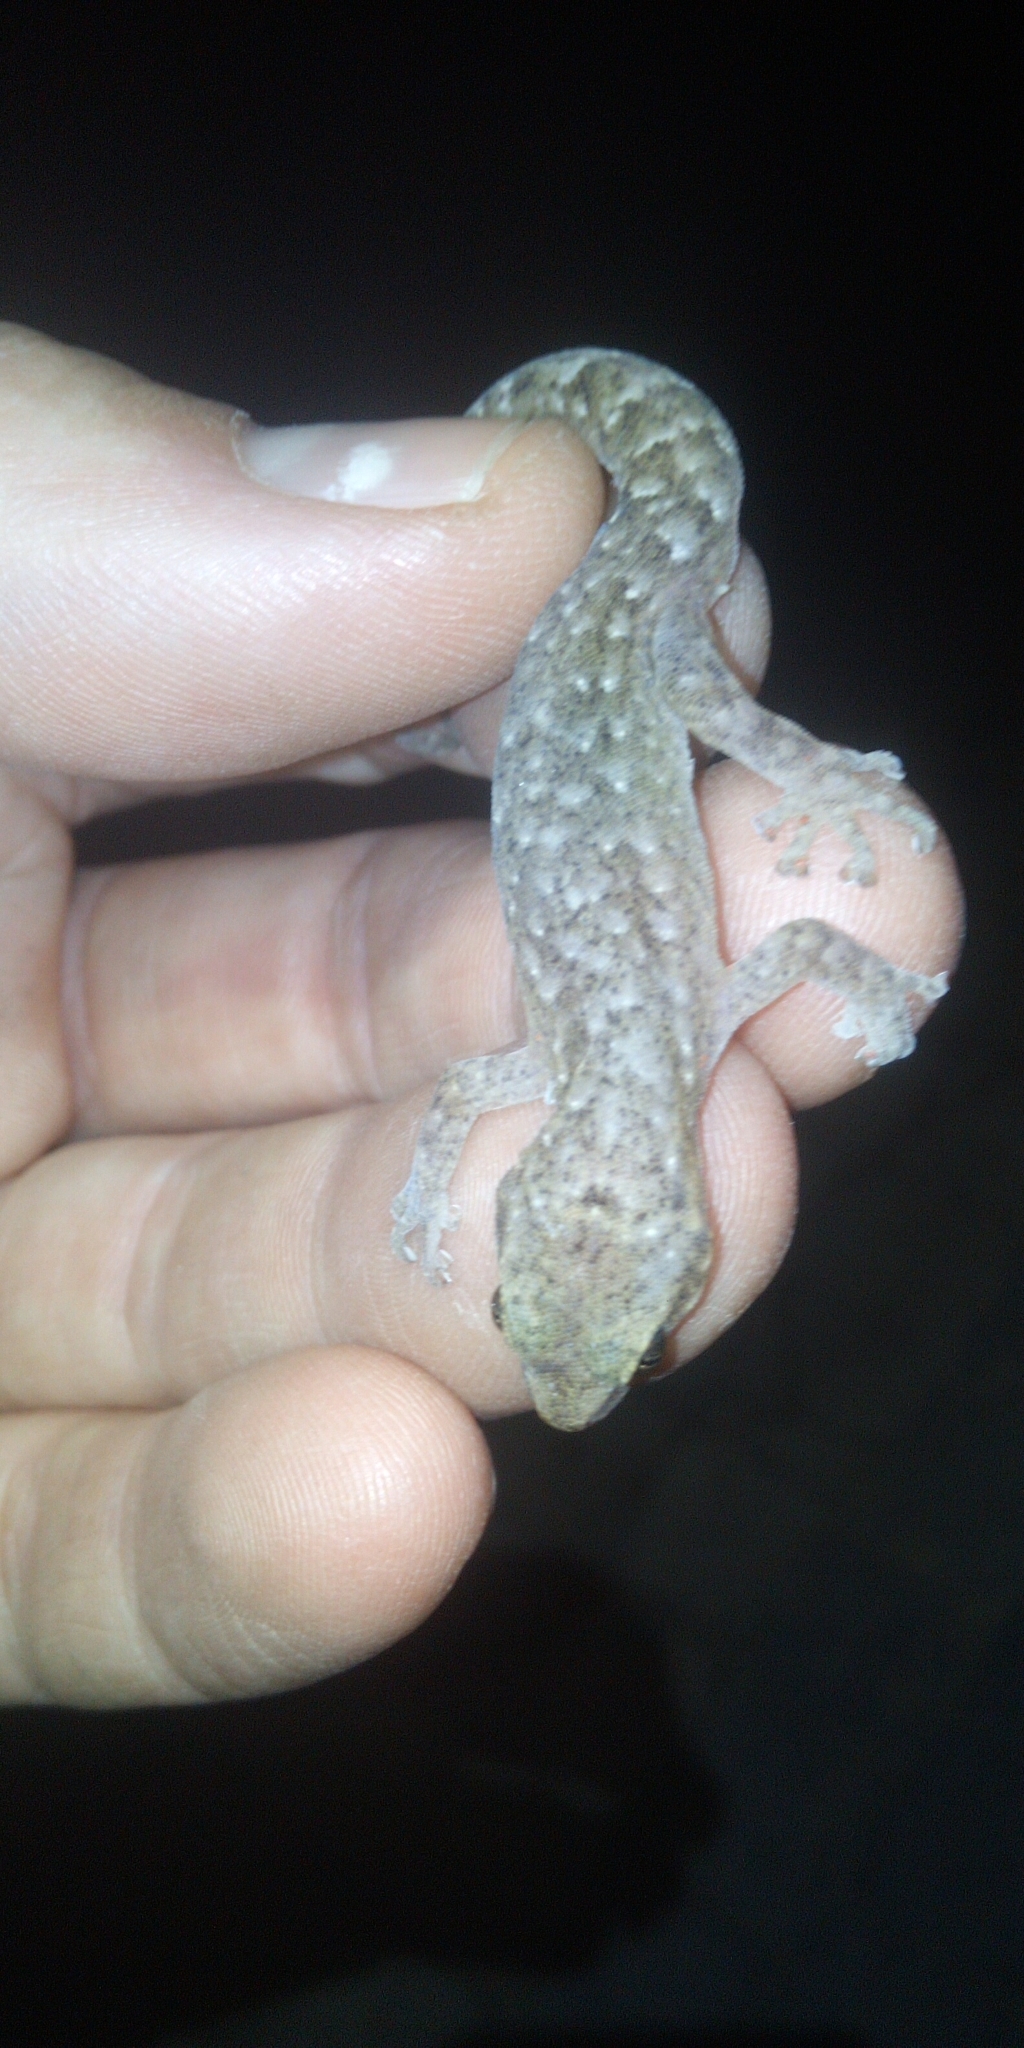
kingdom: Animalia
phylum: Chordata
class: Squamata
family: Gekkonidae
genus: Afrogecko
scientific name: Afrogecko porphyreus
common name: Marbled leaf-toed gecko
